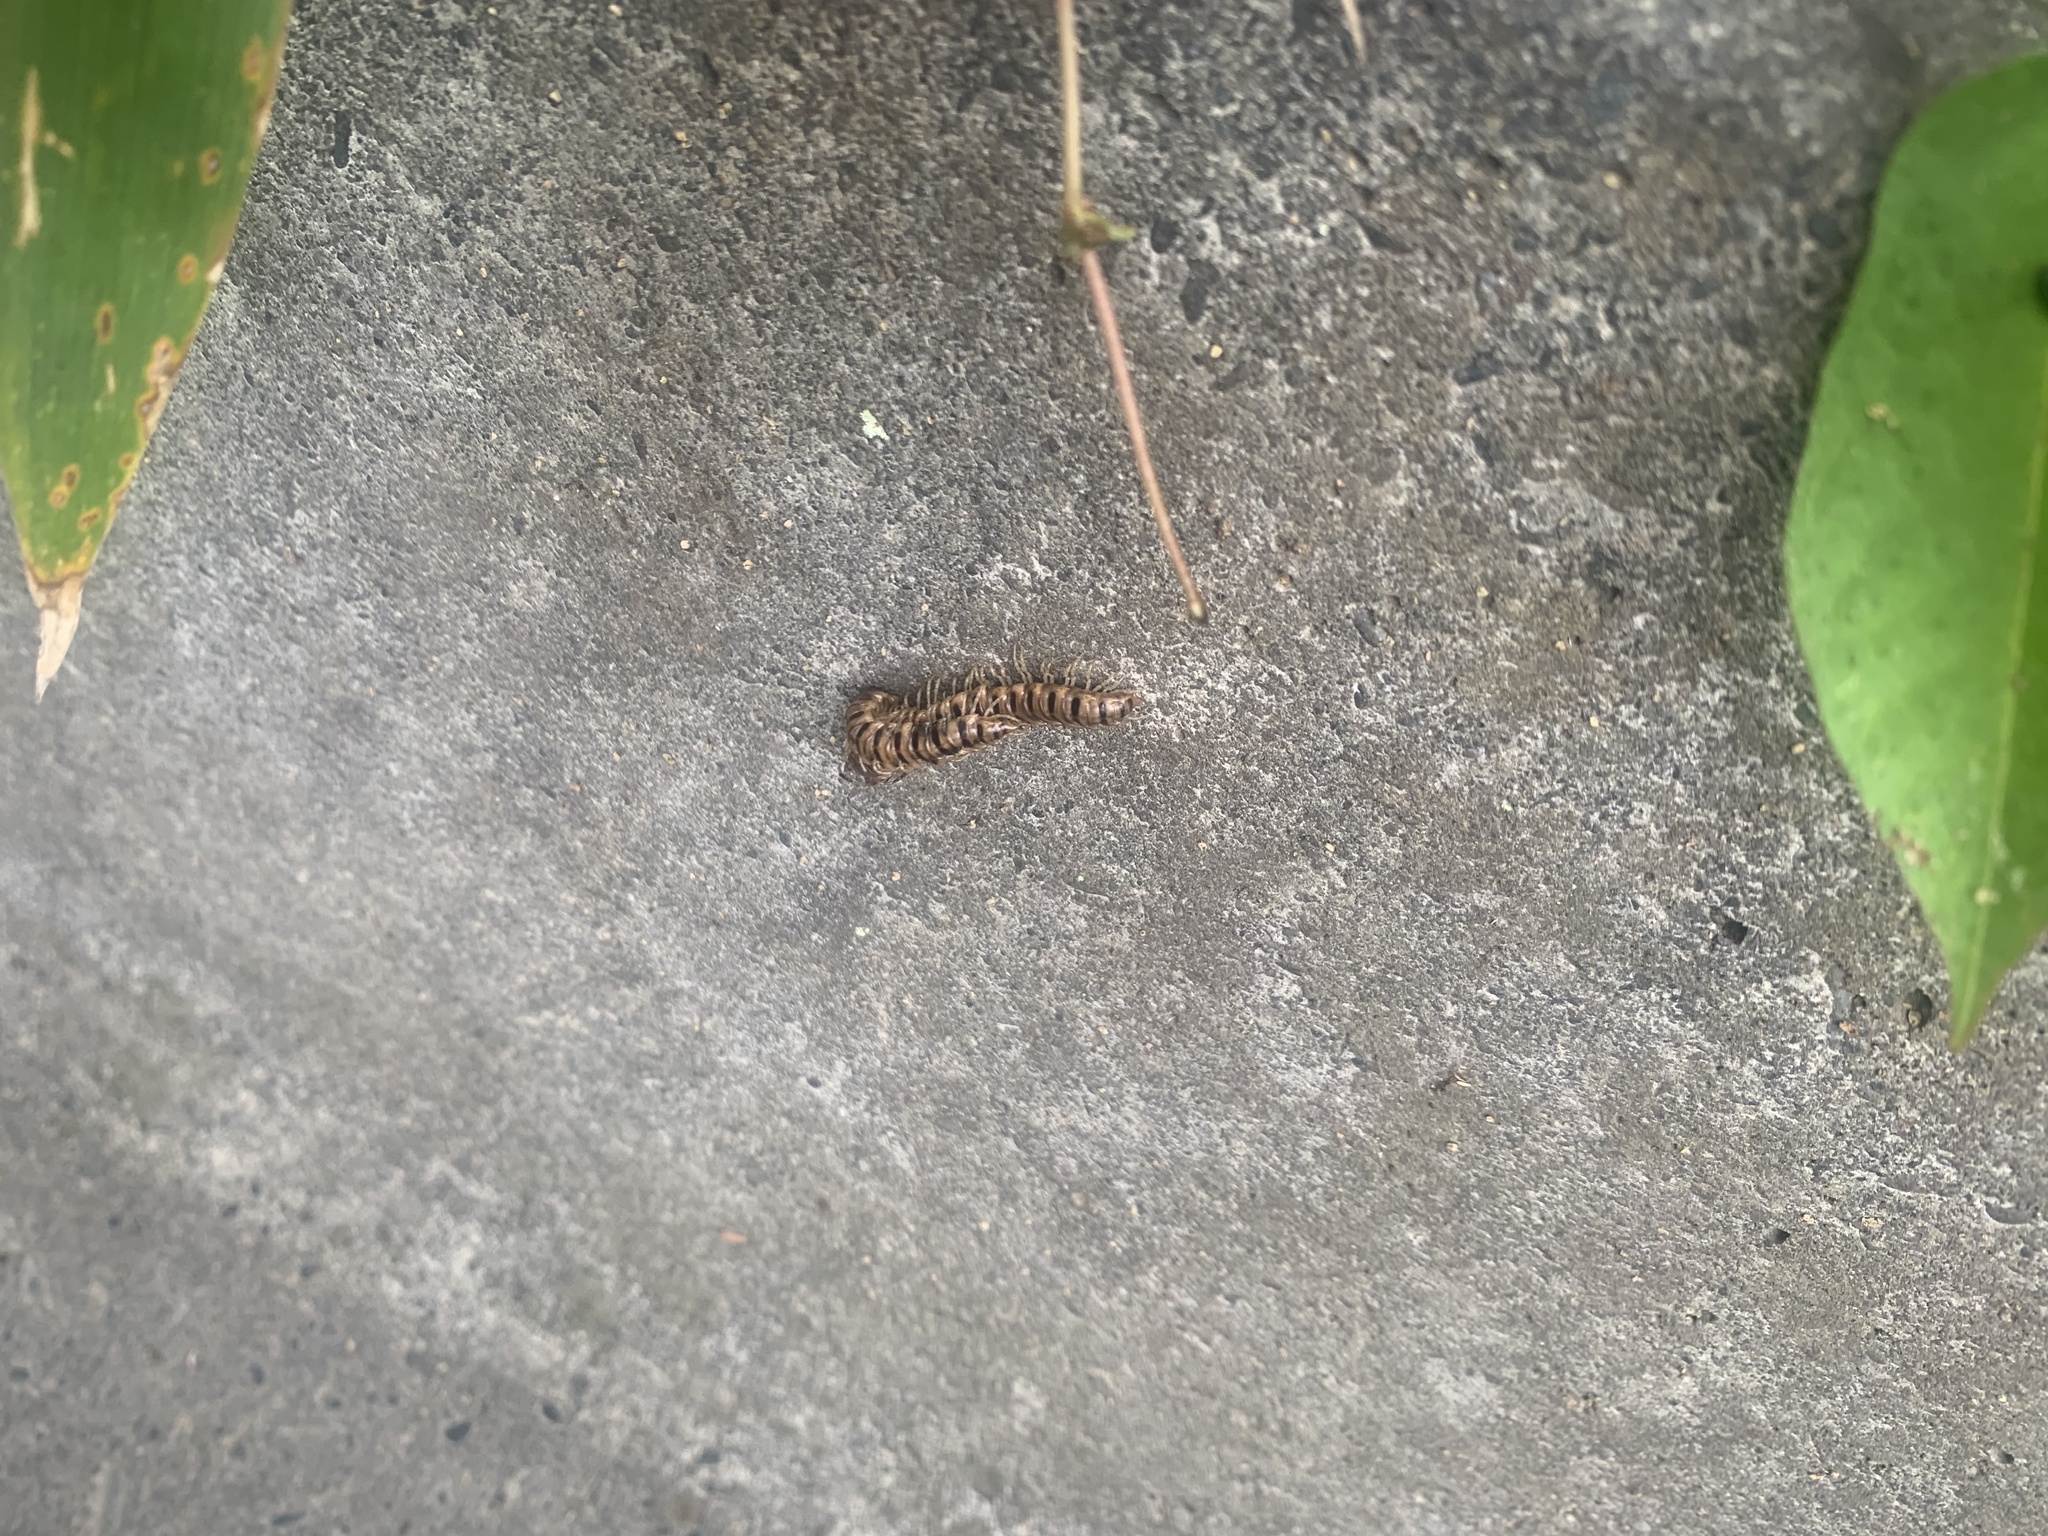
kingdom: Animalia
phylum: Arthropoda
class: Diplopoda
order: Polydesmida
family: Paradoxosomatidae
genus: Chamberlinius
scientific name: Chamberlinius hualienensis
